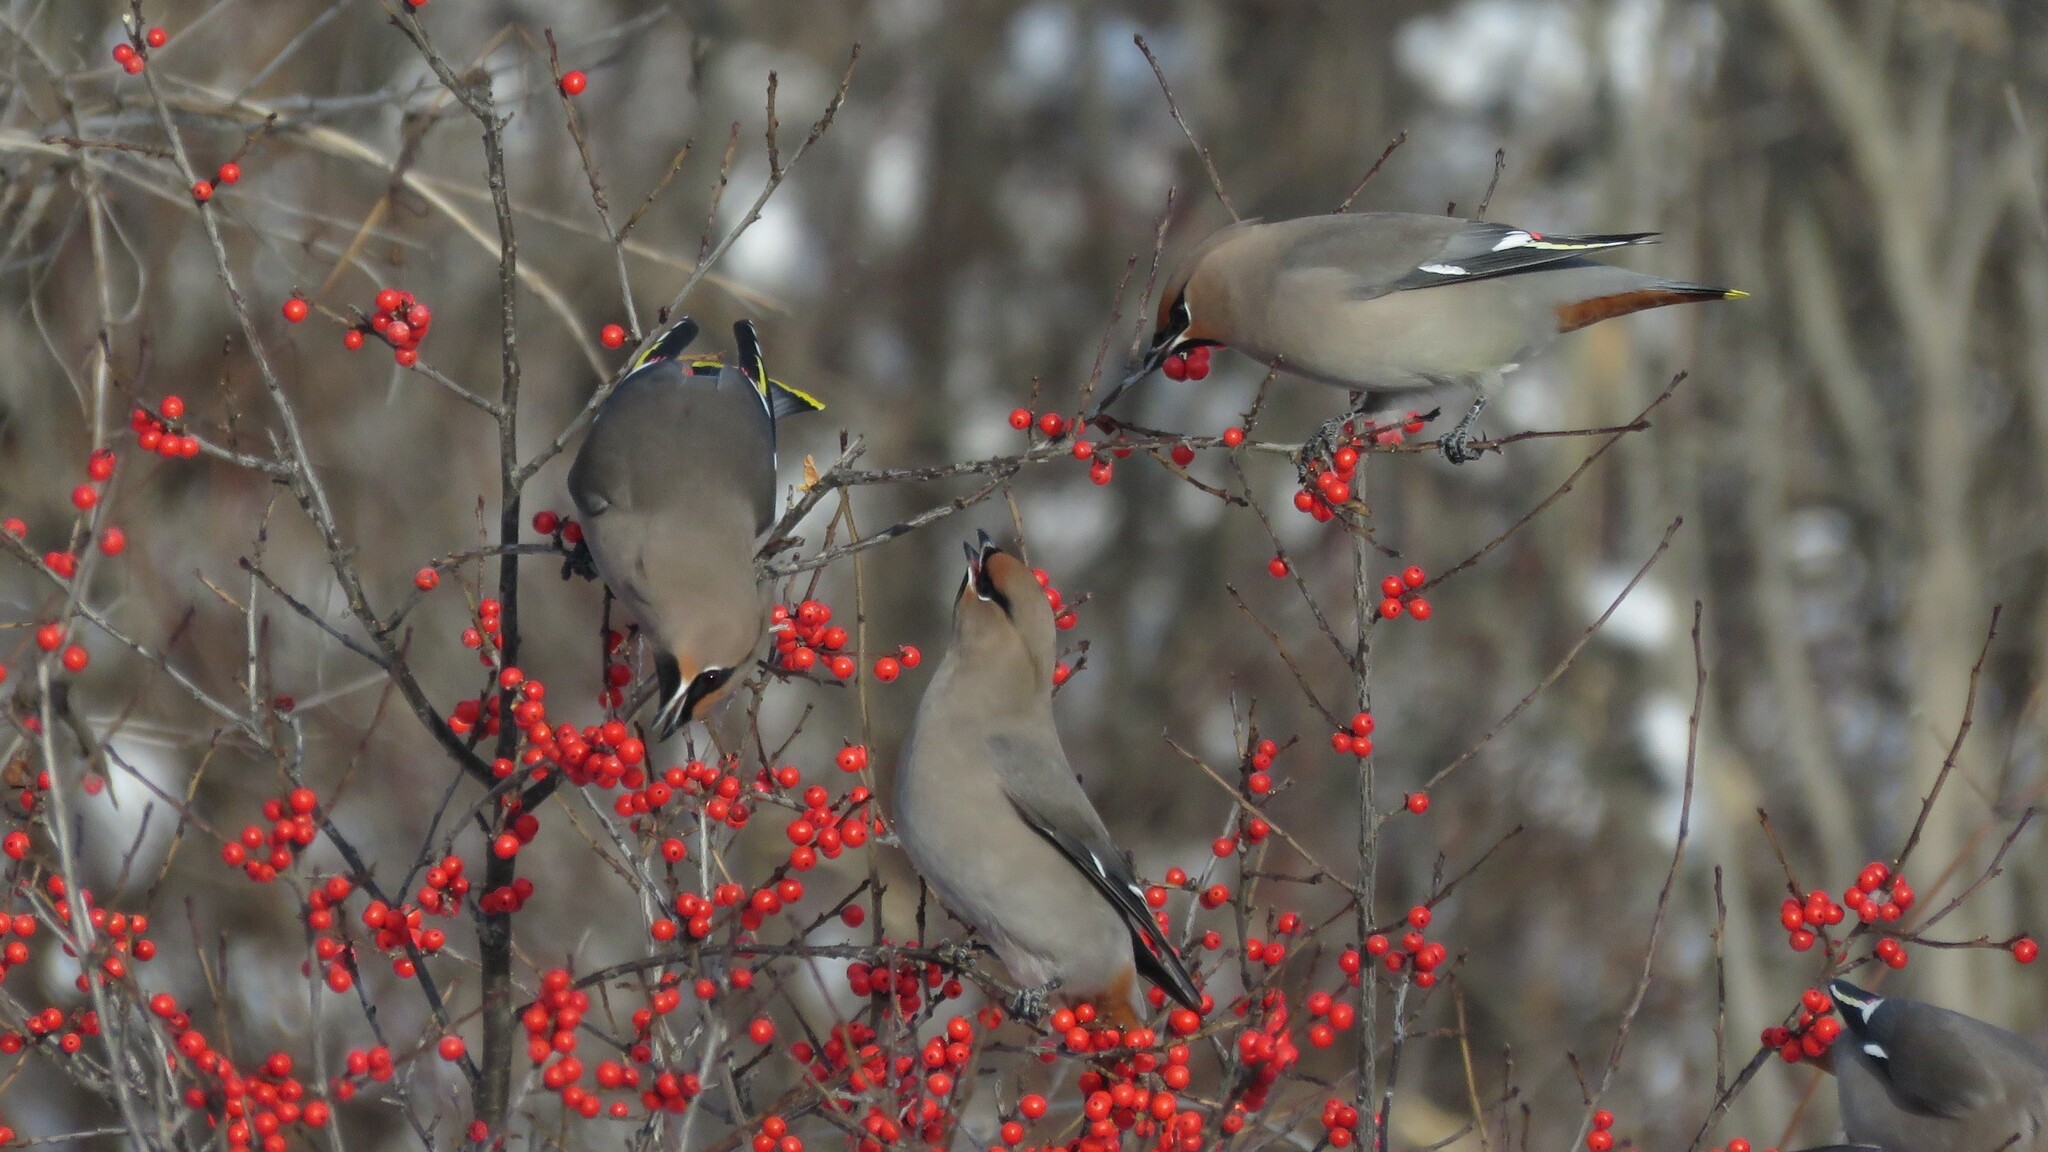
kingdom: Animalia
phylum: Chordata
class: Aves
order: Passeriformes
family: Bombycillidae
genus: Bombycilla
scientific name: Bombycilla garrulus
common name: Bohemian waxwing
